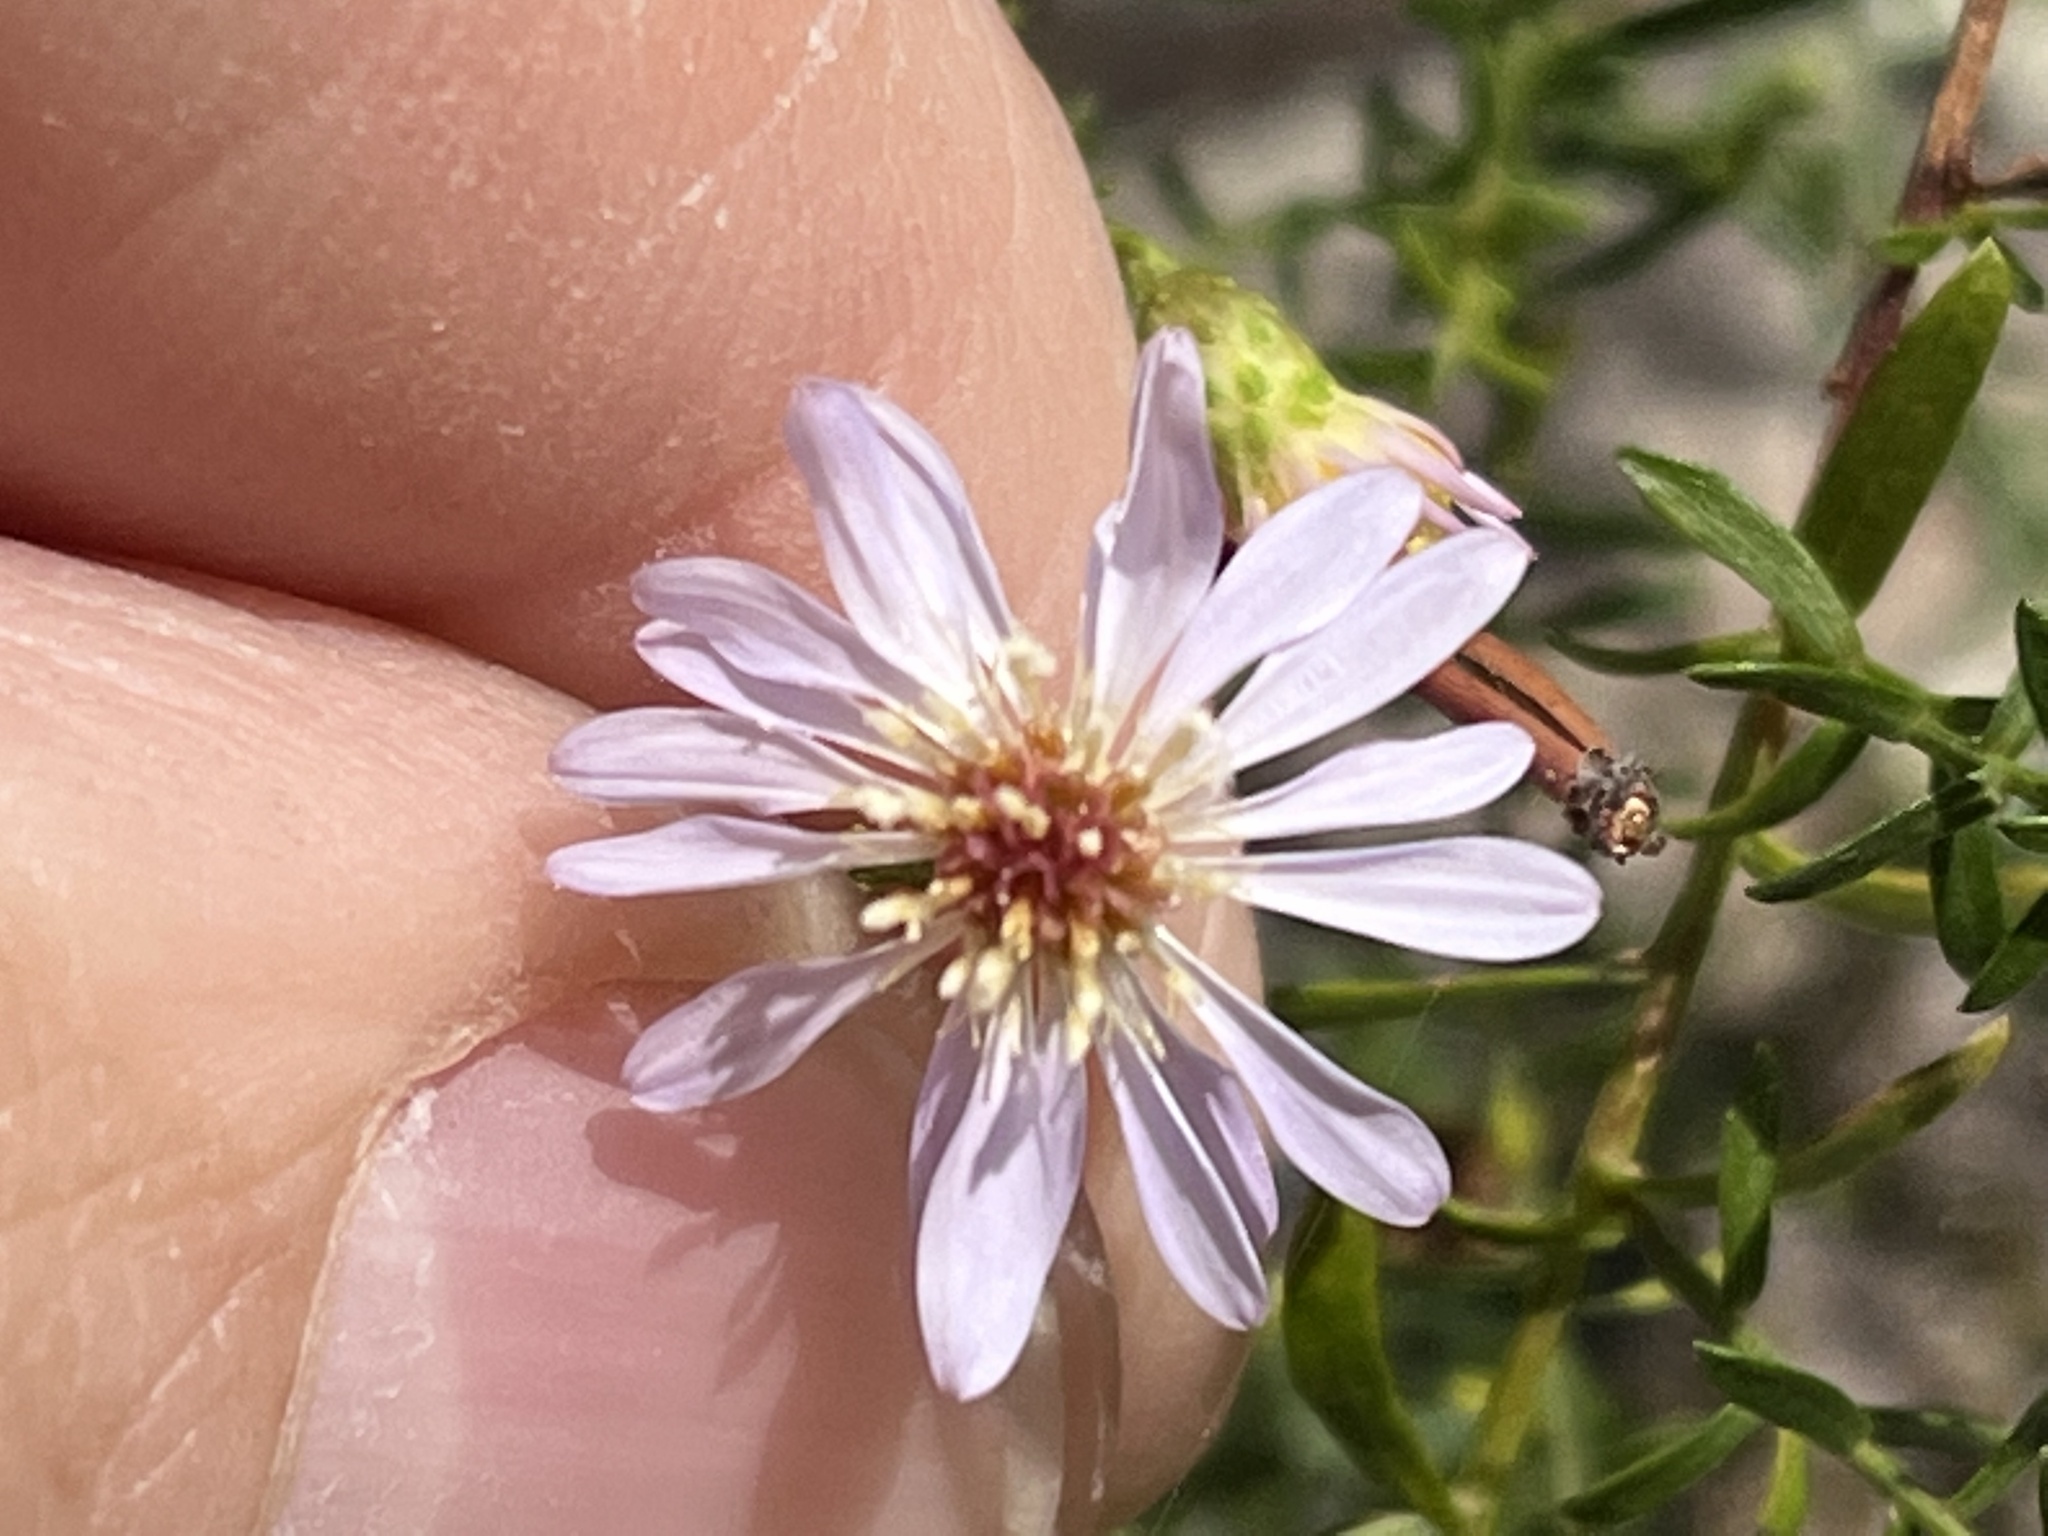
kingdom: Plantae
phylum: Tracheophyta
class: Magnoliopsida
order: Asterales
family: Asteraceae
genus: Symphyotrichum
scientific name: Symphyotrichum dumosum
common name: Bushy aster
